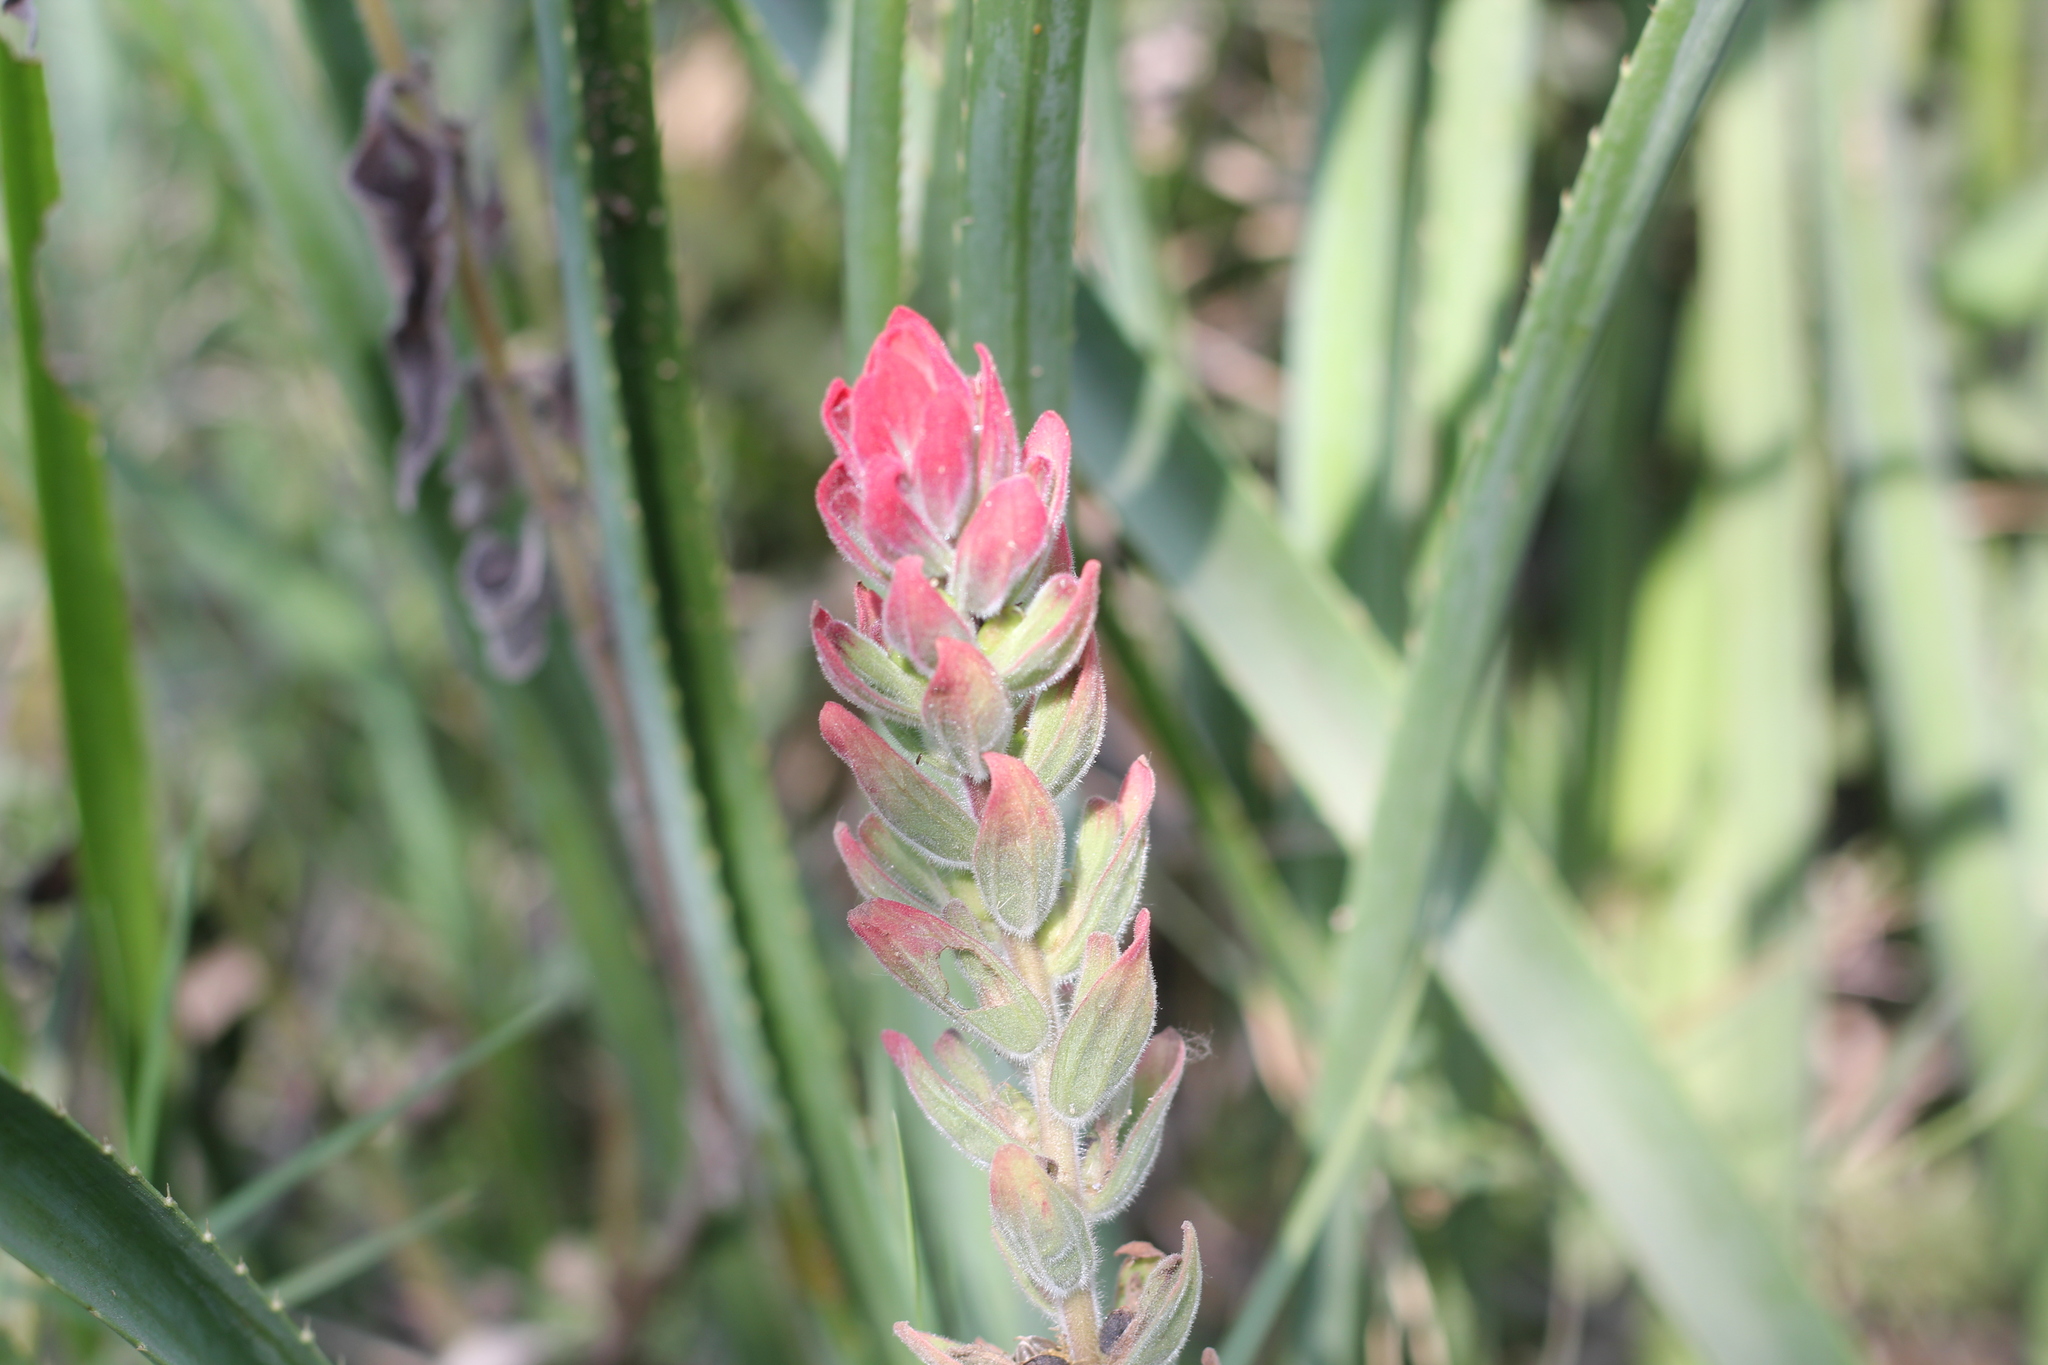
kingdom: Plantae
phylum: Tracheophyta
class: Magnoliopsida
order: Lamiales
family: Orobanchaceae
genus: Castilleja
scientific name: Castilleja arvensis
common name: Indian paintbrush
